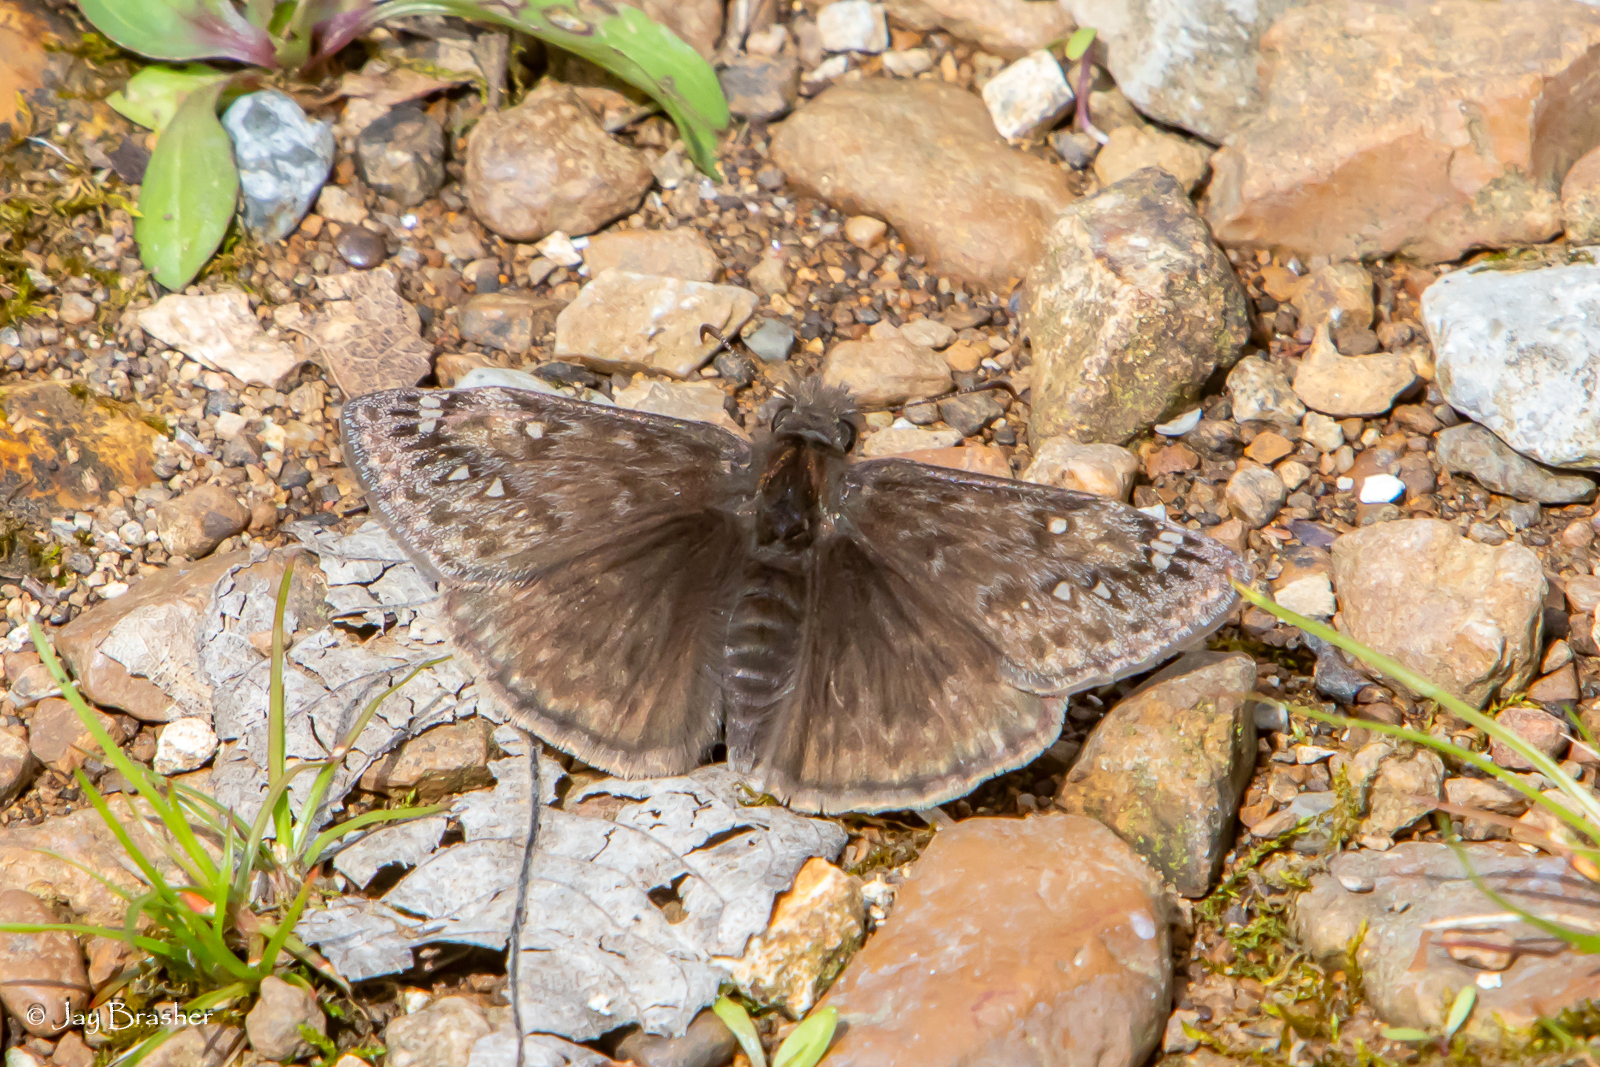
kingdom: Animalia
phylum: Arthropoda
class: Insecta
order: Lepidoptera
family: Hesperiidae
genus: Erynnis
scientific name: Erynnis juvenalis
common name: Juvenal's duskywing
